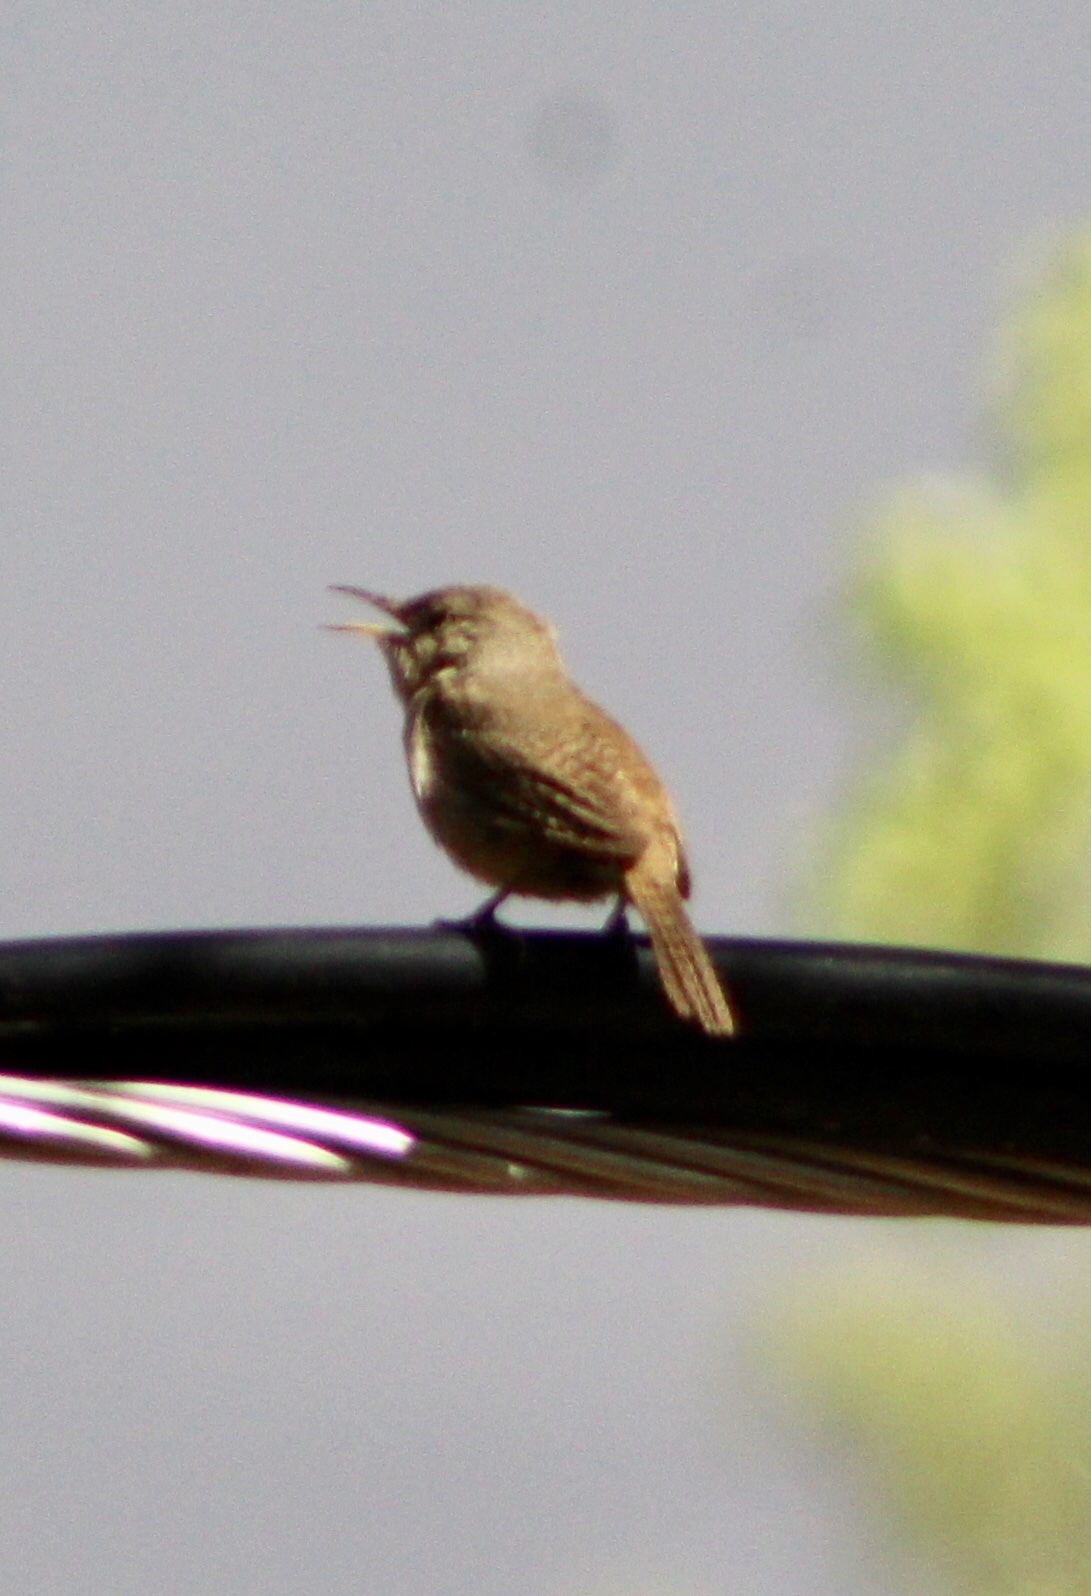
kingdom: Animalia
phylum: Chordata
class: Aves
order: Passeriformes
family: Troglodytidae
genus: Troglodytes
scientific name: Troglodytes aedon
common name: House wren
